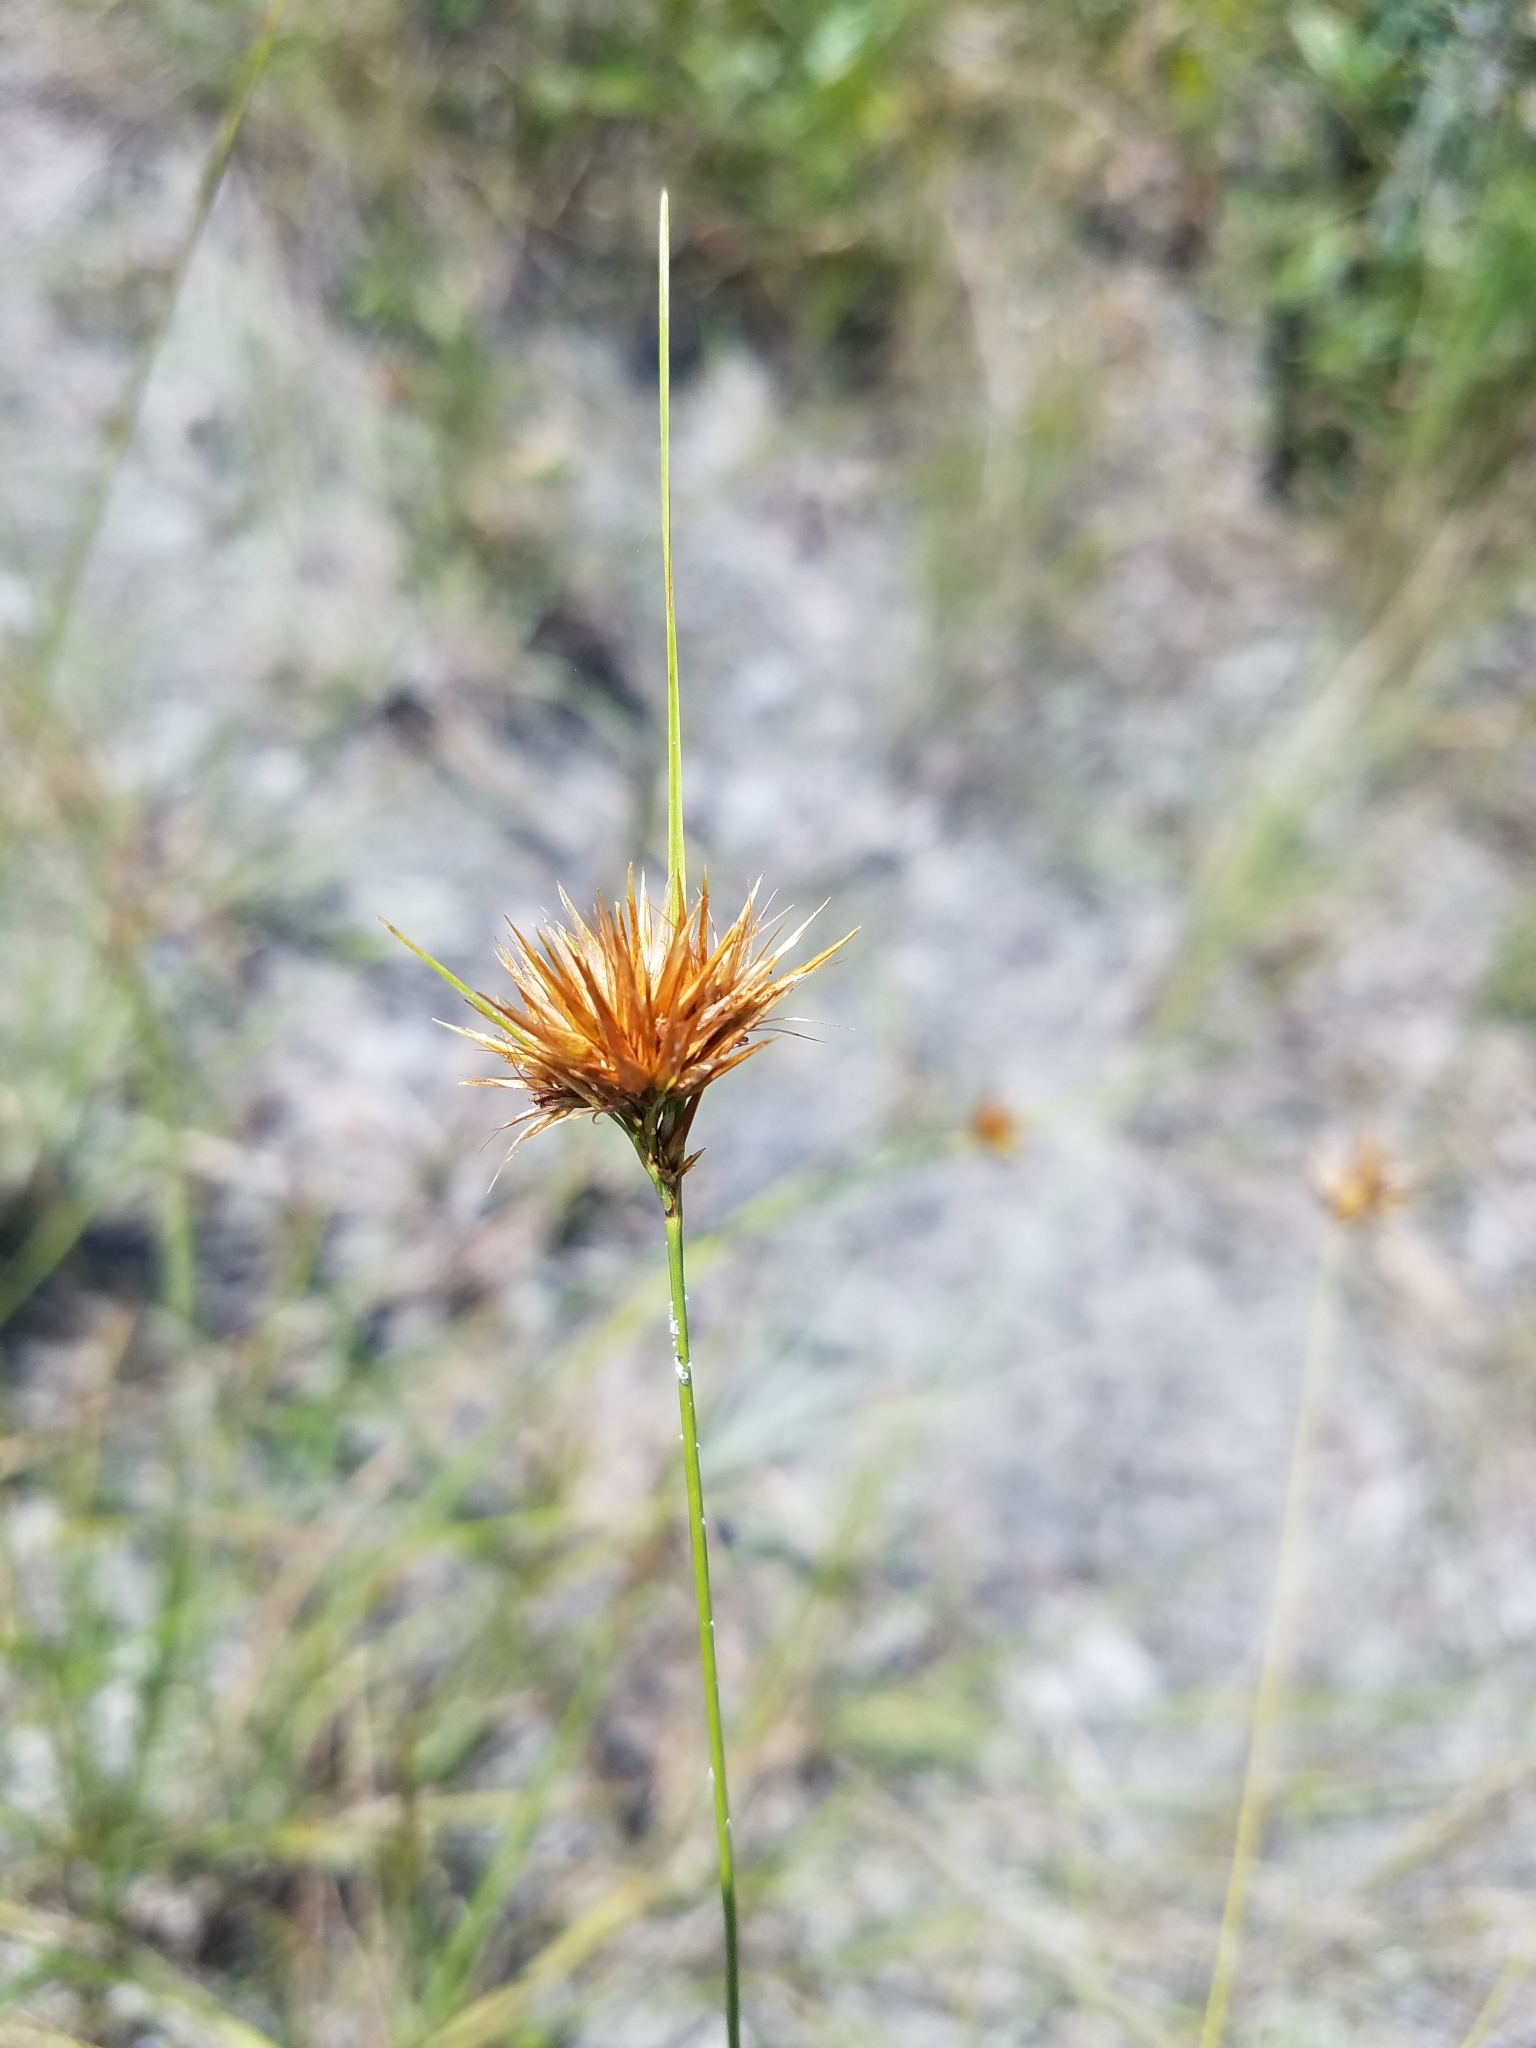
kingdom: Plantae
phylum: Tracheophyta
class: Liliopsida
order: Poales
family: Cyperaceae
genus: Rhynchospora
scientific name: Rhynchospora megaplumosa
